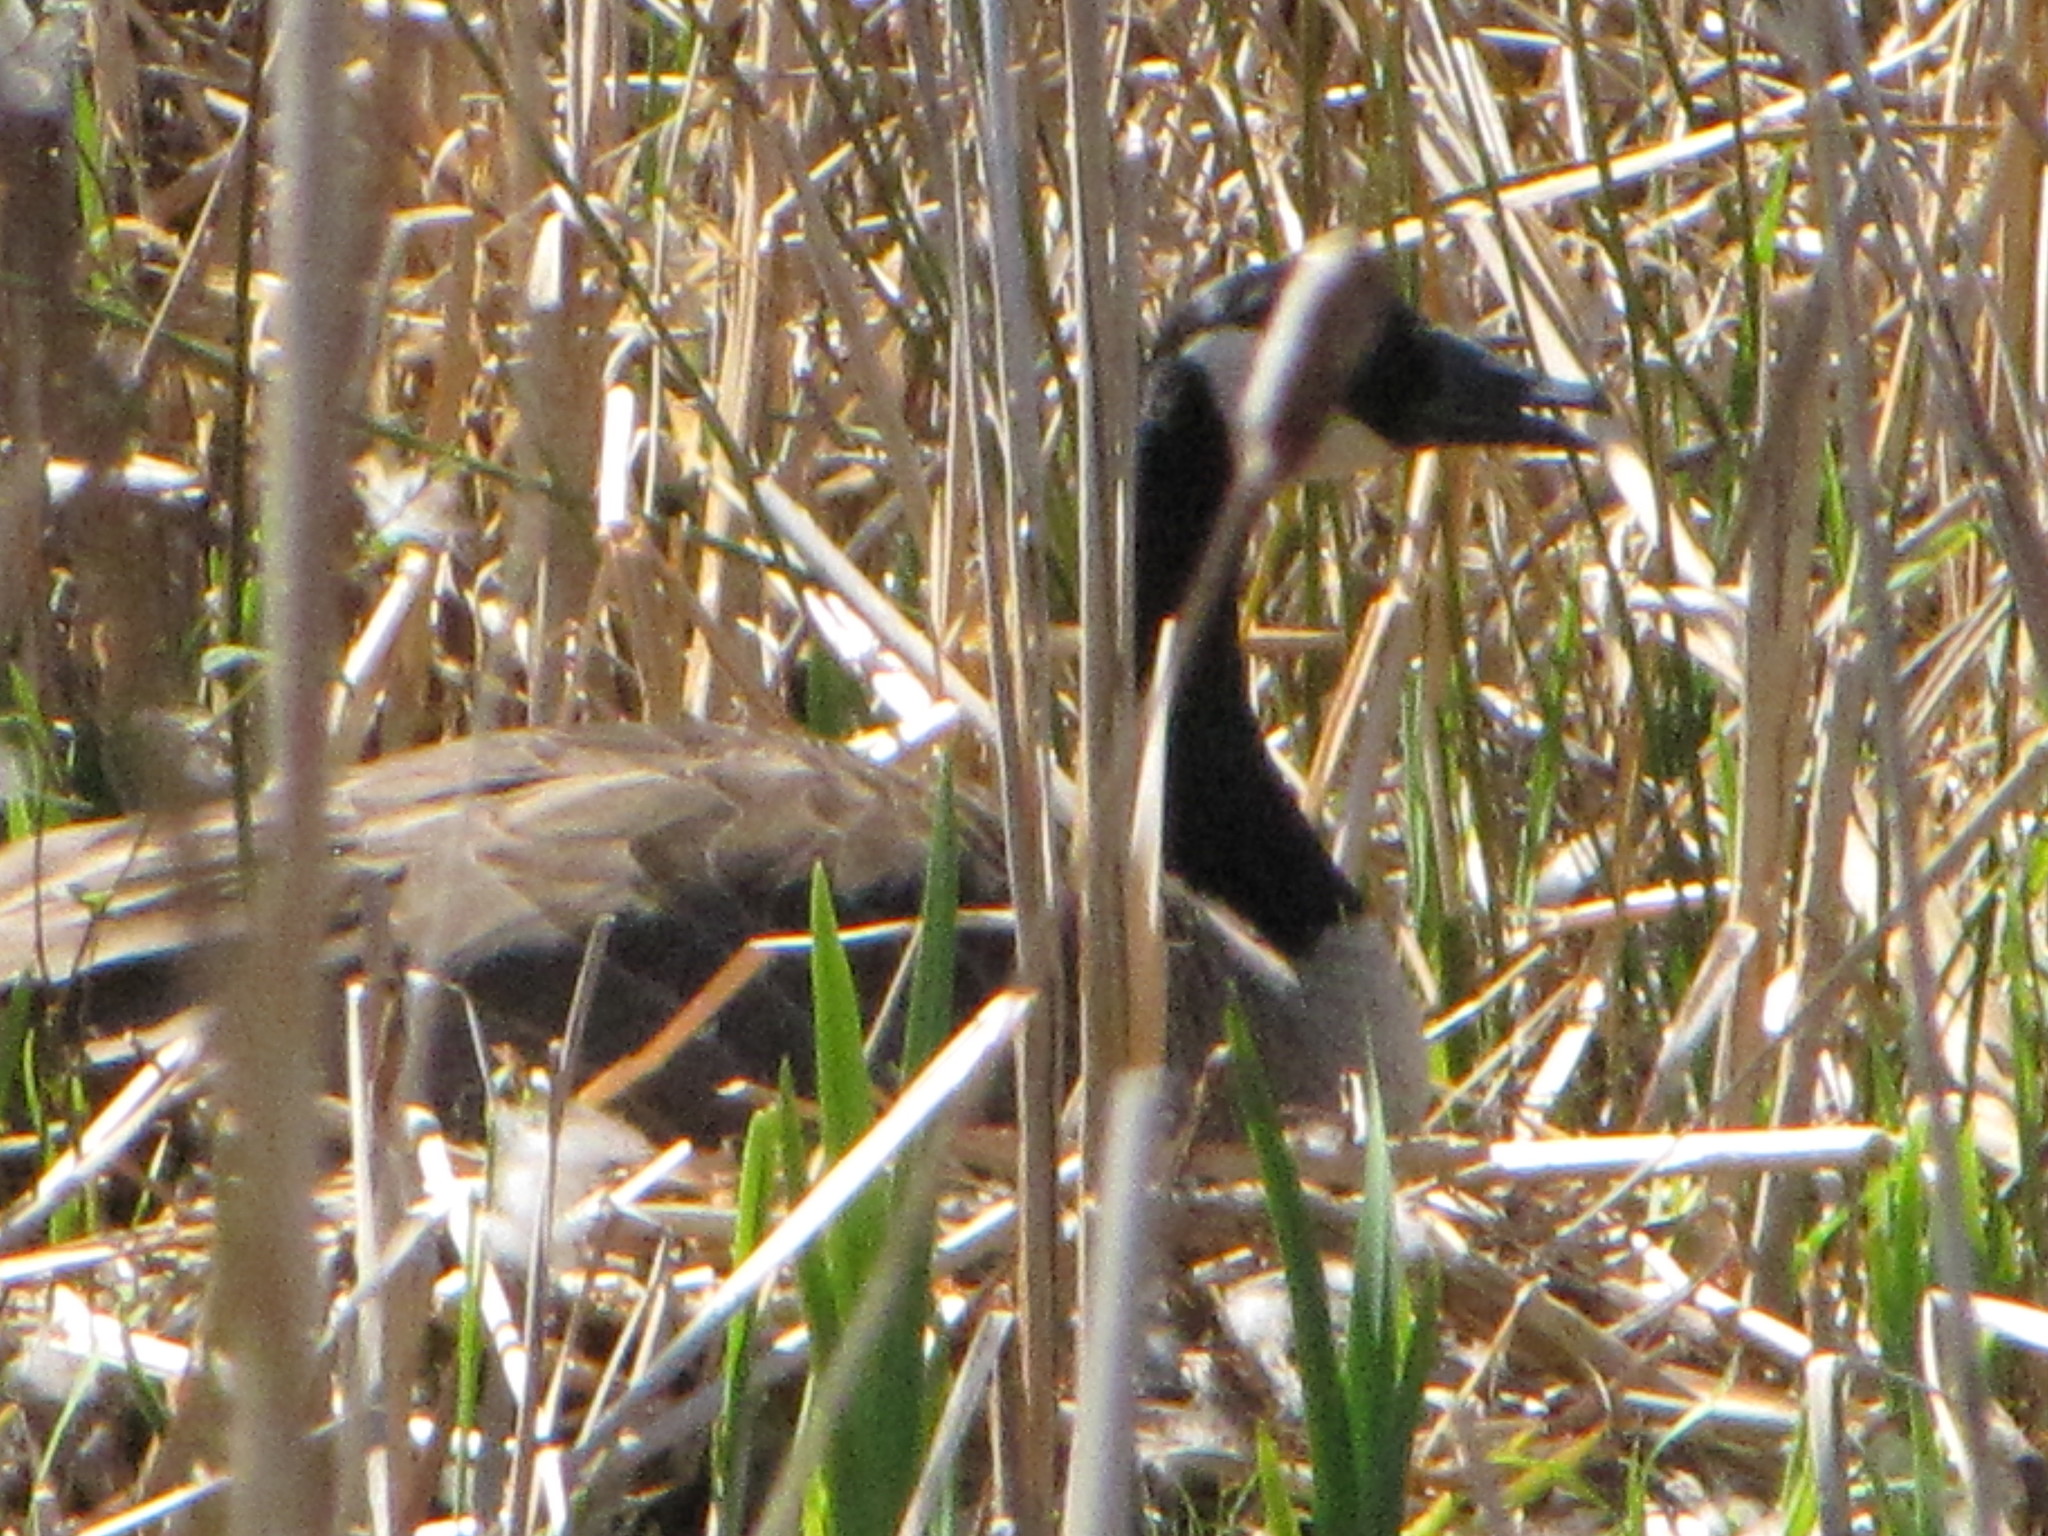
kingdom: Animalia
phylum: Chordata
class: Aves
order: Anseriformes
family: Anatidae
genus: Branta
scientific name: Branta canadensis
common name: Canada goose
